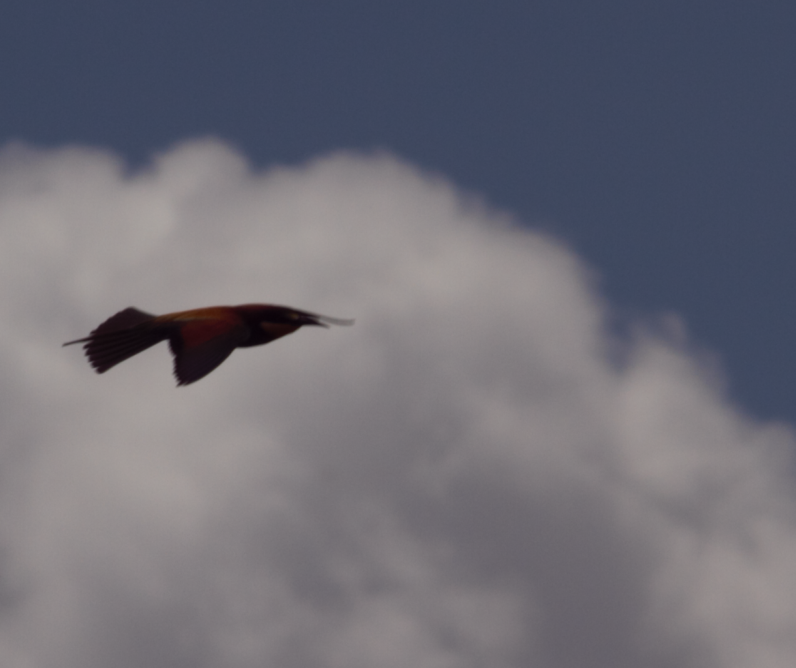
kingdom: Animalia
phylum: Chordata
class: Aves
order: Coraciiformes
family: Meropidae
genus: Merops
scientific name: Merops apiaster
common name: European bee-eater
